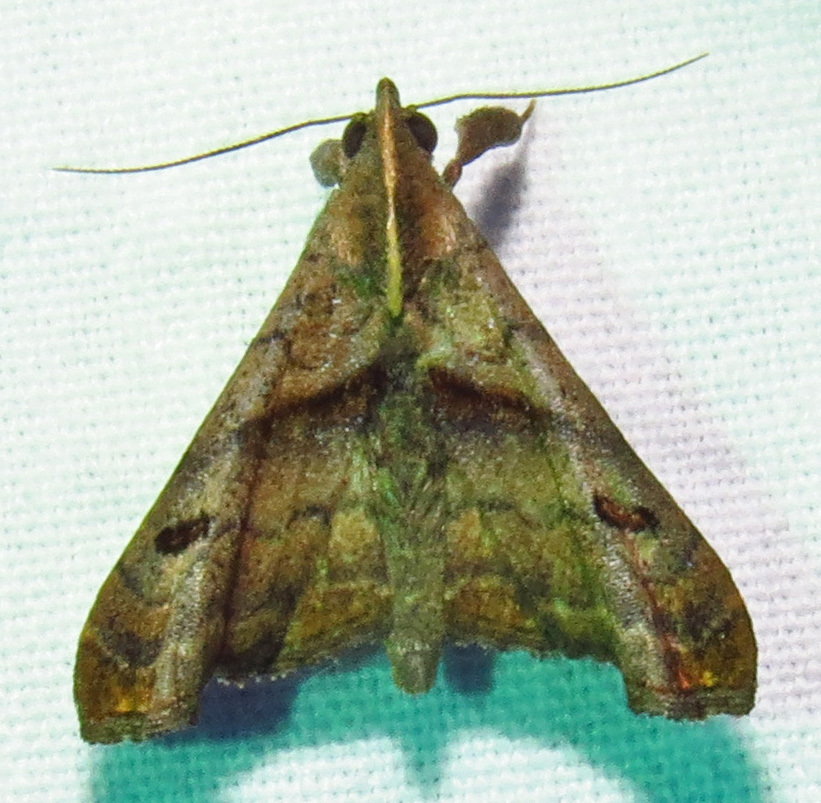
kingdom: Animalia
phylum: Arthropoda
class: Insecta
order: Lepidoptera
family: Erebidae
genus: Palthis
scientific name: Palthis angulalis
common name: Dark-spotted palthis moth
